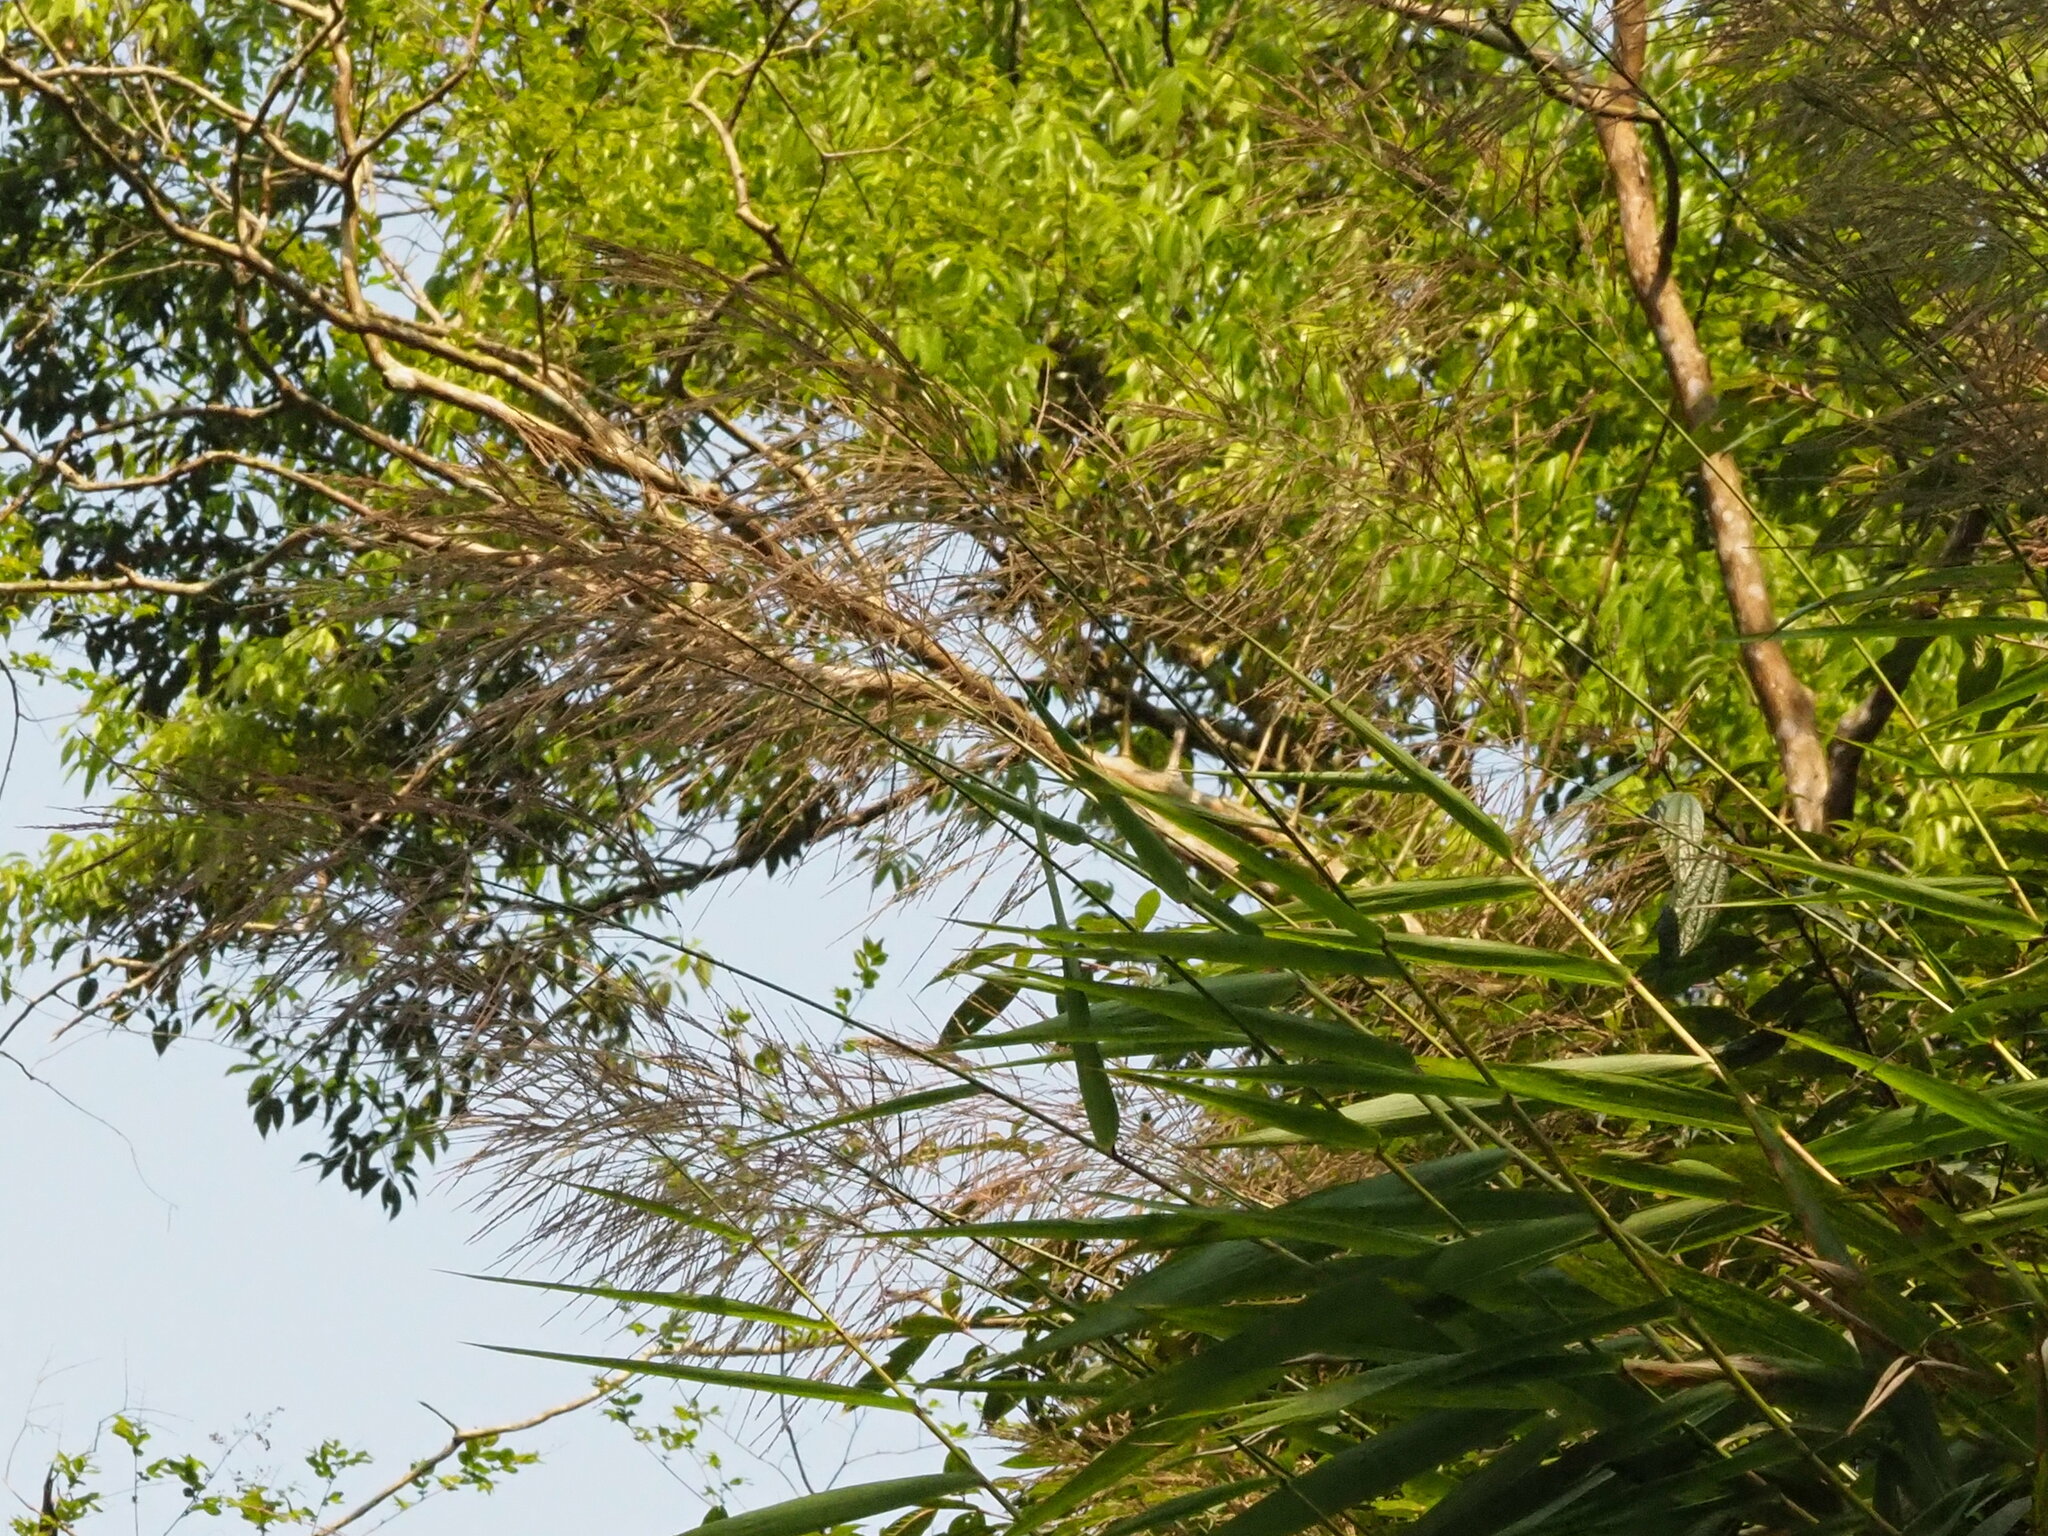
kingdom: Plantae
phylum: Tracheophyta
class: Liliopsida
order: Poales
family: Poaceae
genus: Thysanolaena
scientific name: Thysanolaena latifolia
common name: Tiger grass
